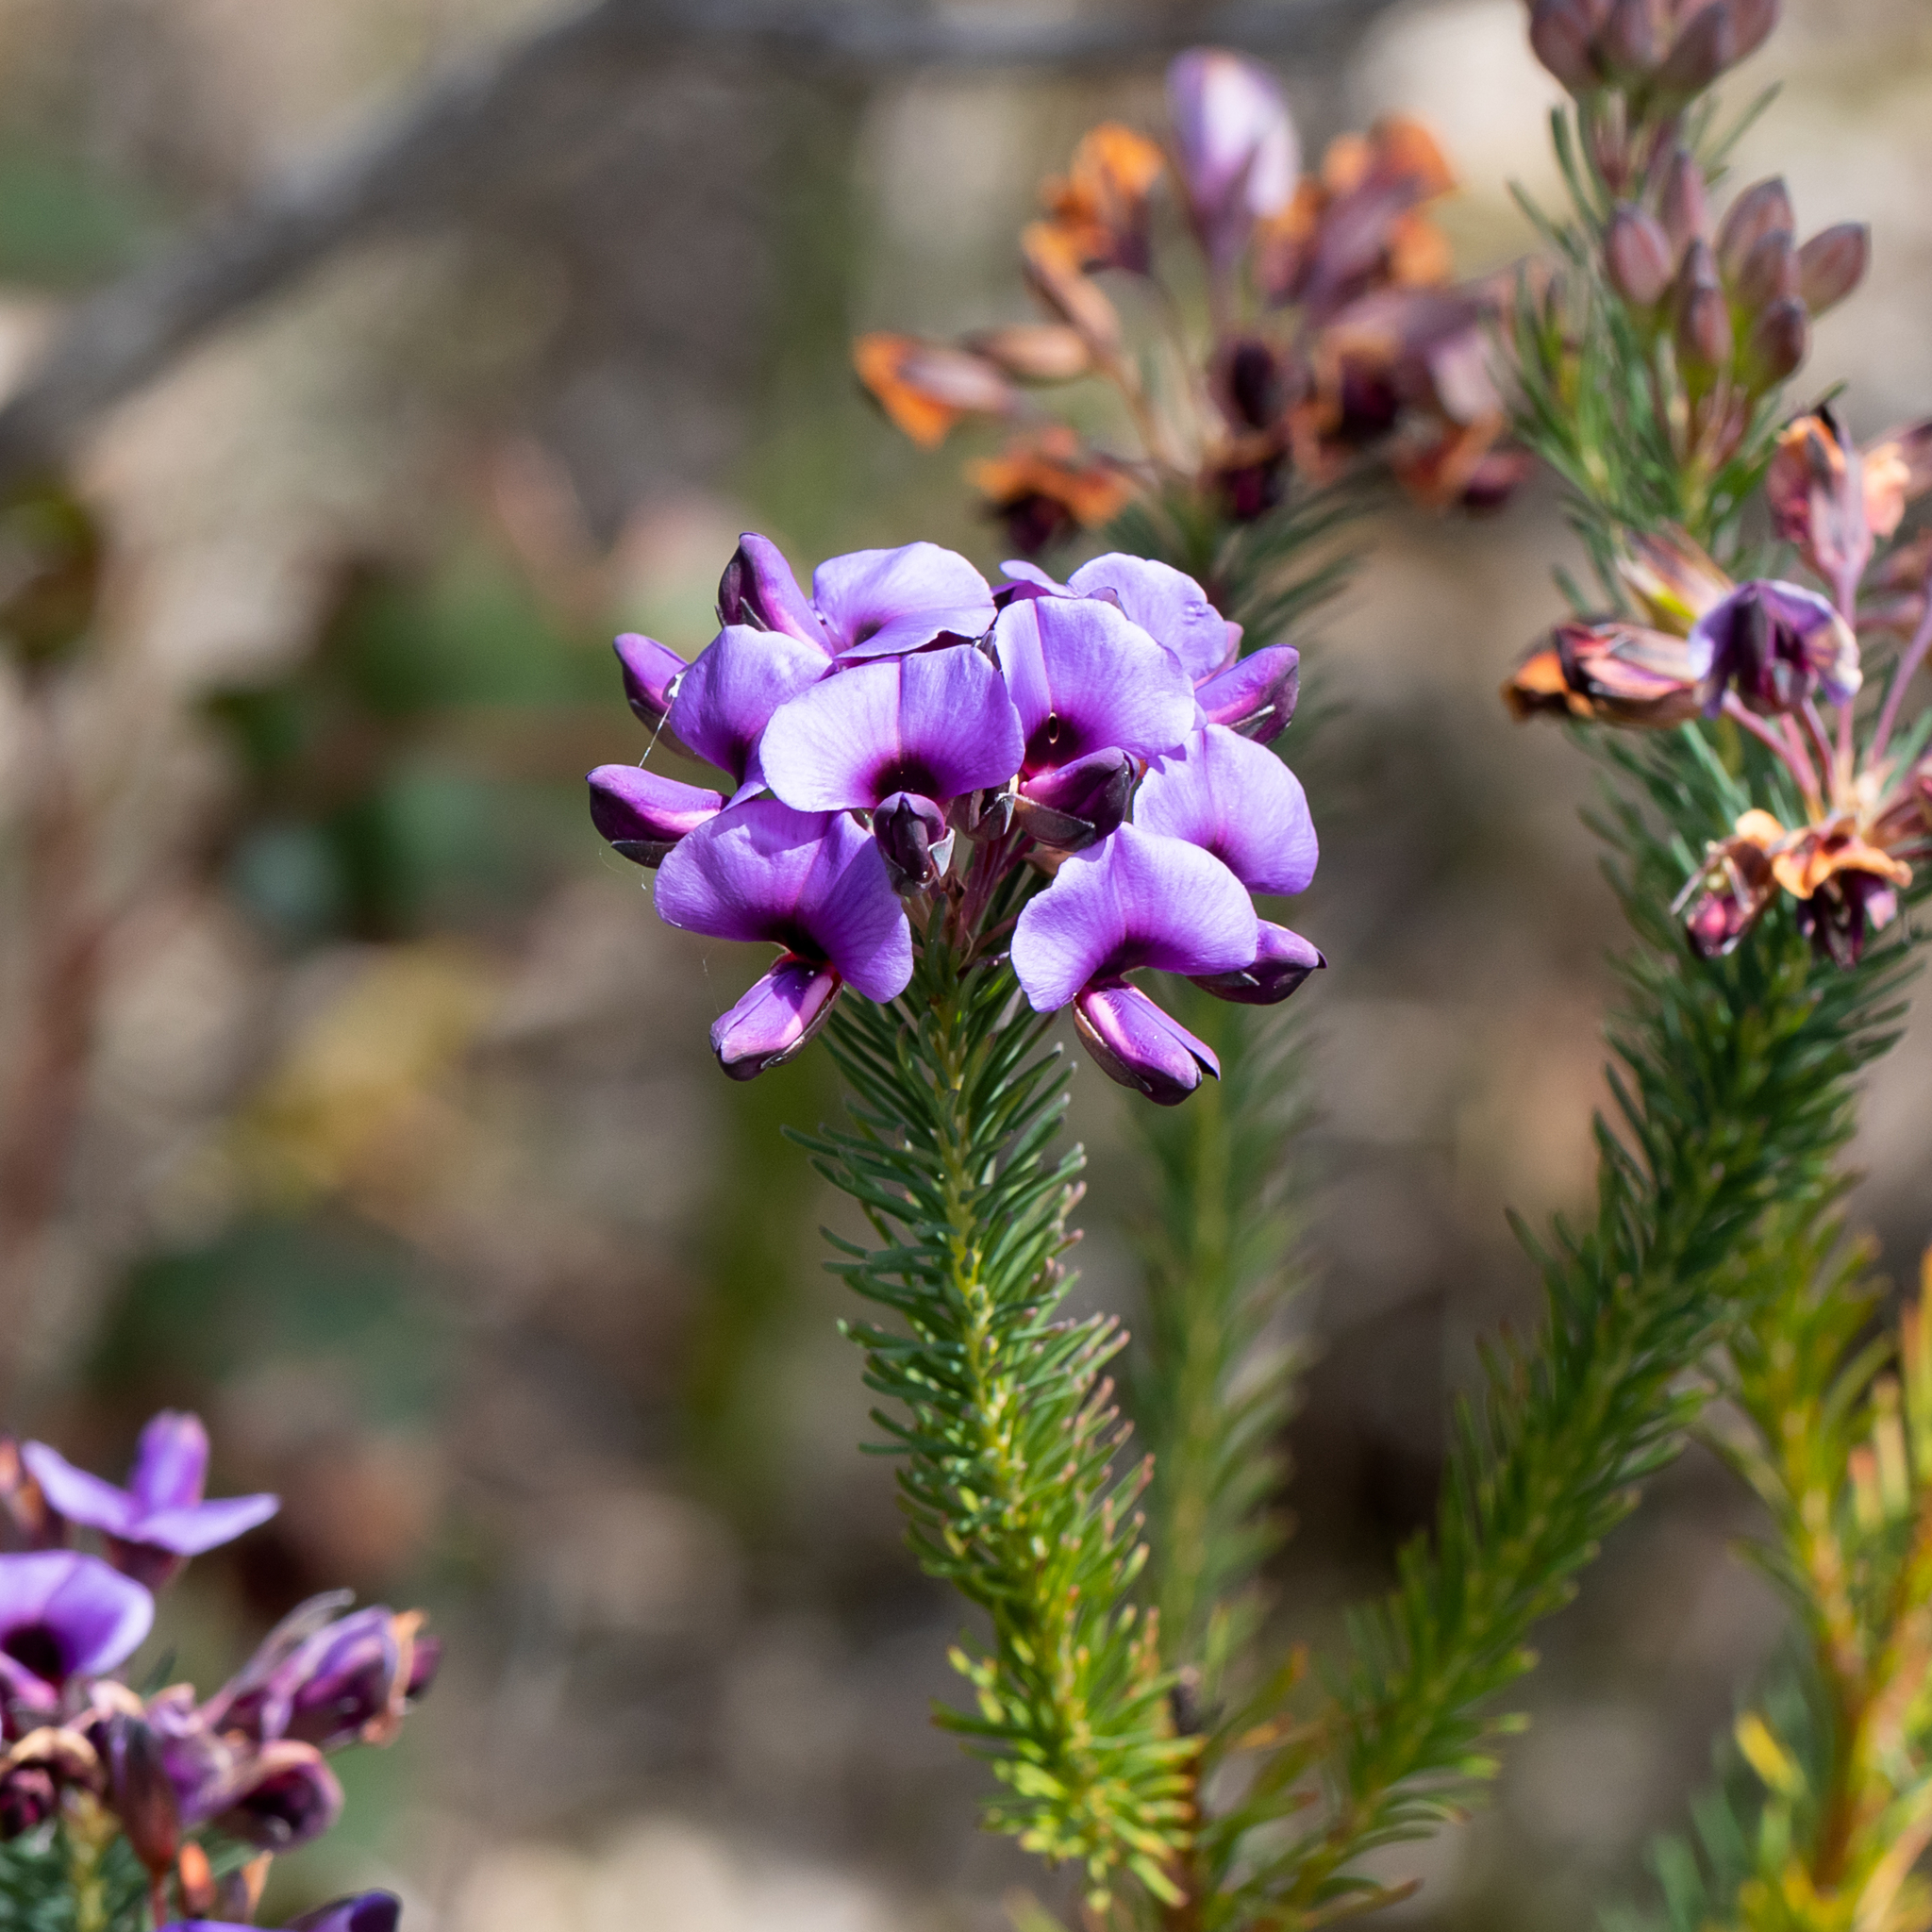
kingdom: Plantae
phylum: Tracheophyta
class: Magnoliopsida
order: Fabales
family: Fabaceae
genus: Gompholobium
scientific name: Gompholobium confertum
